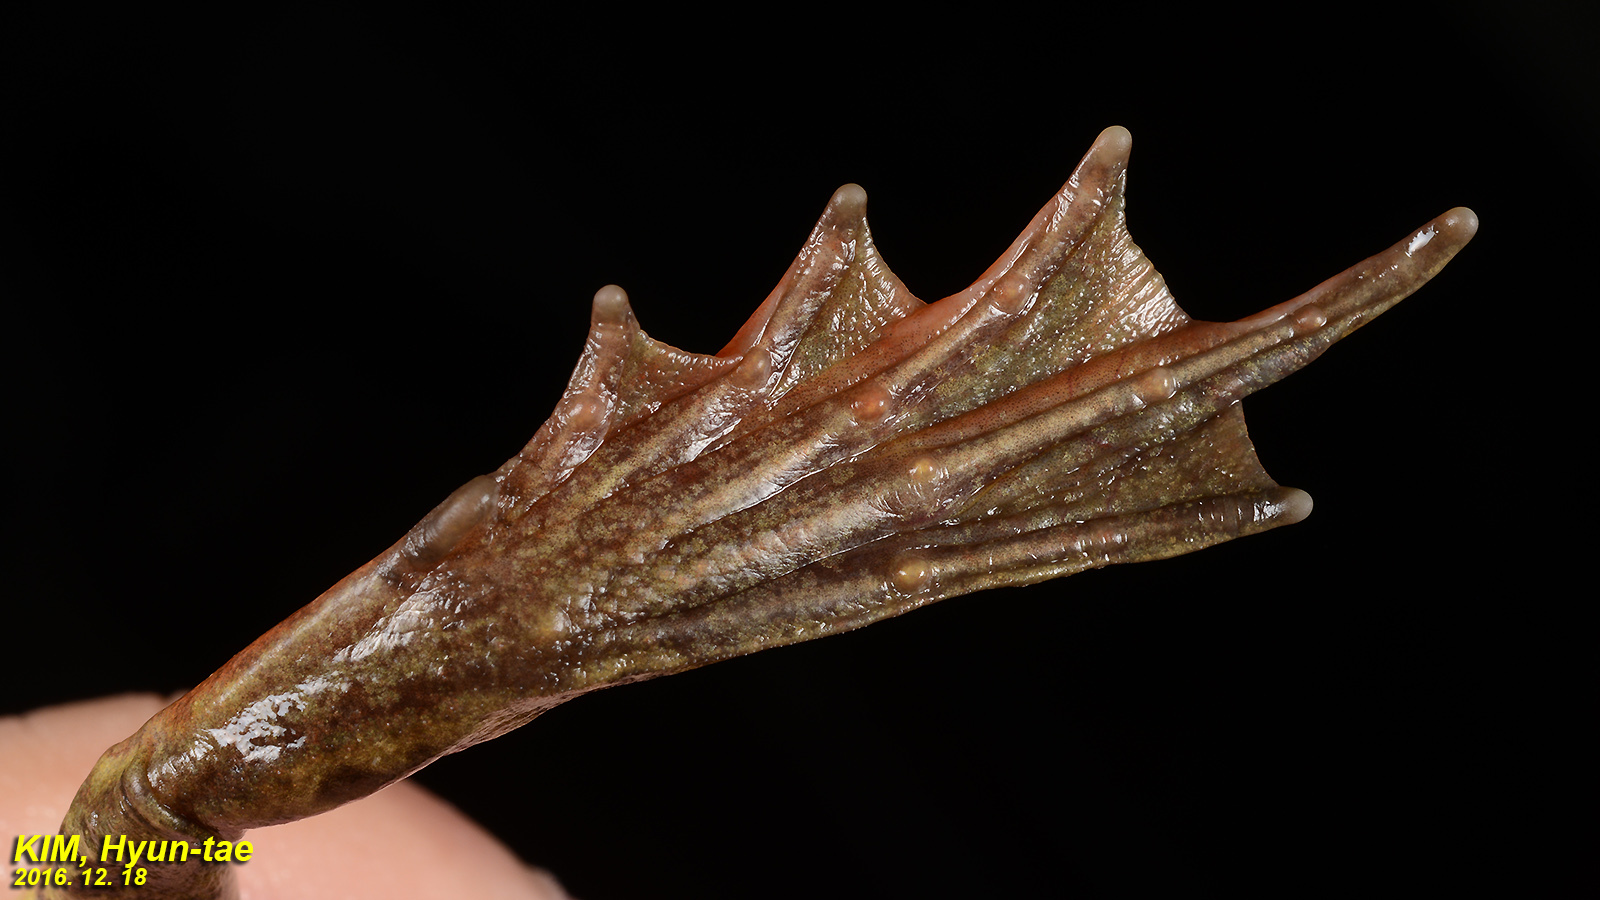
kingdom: Animalia
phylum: Chordata
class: Amphibia
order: Anura
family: Ranidae
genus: Rana
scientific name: Rana dybowskii
